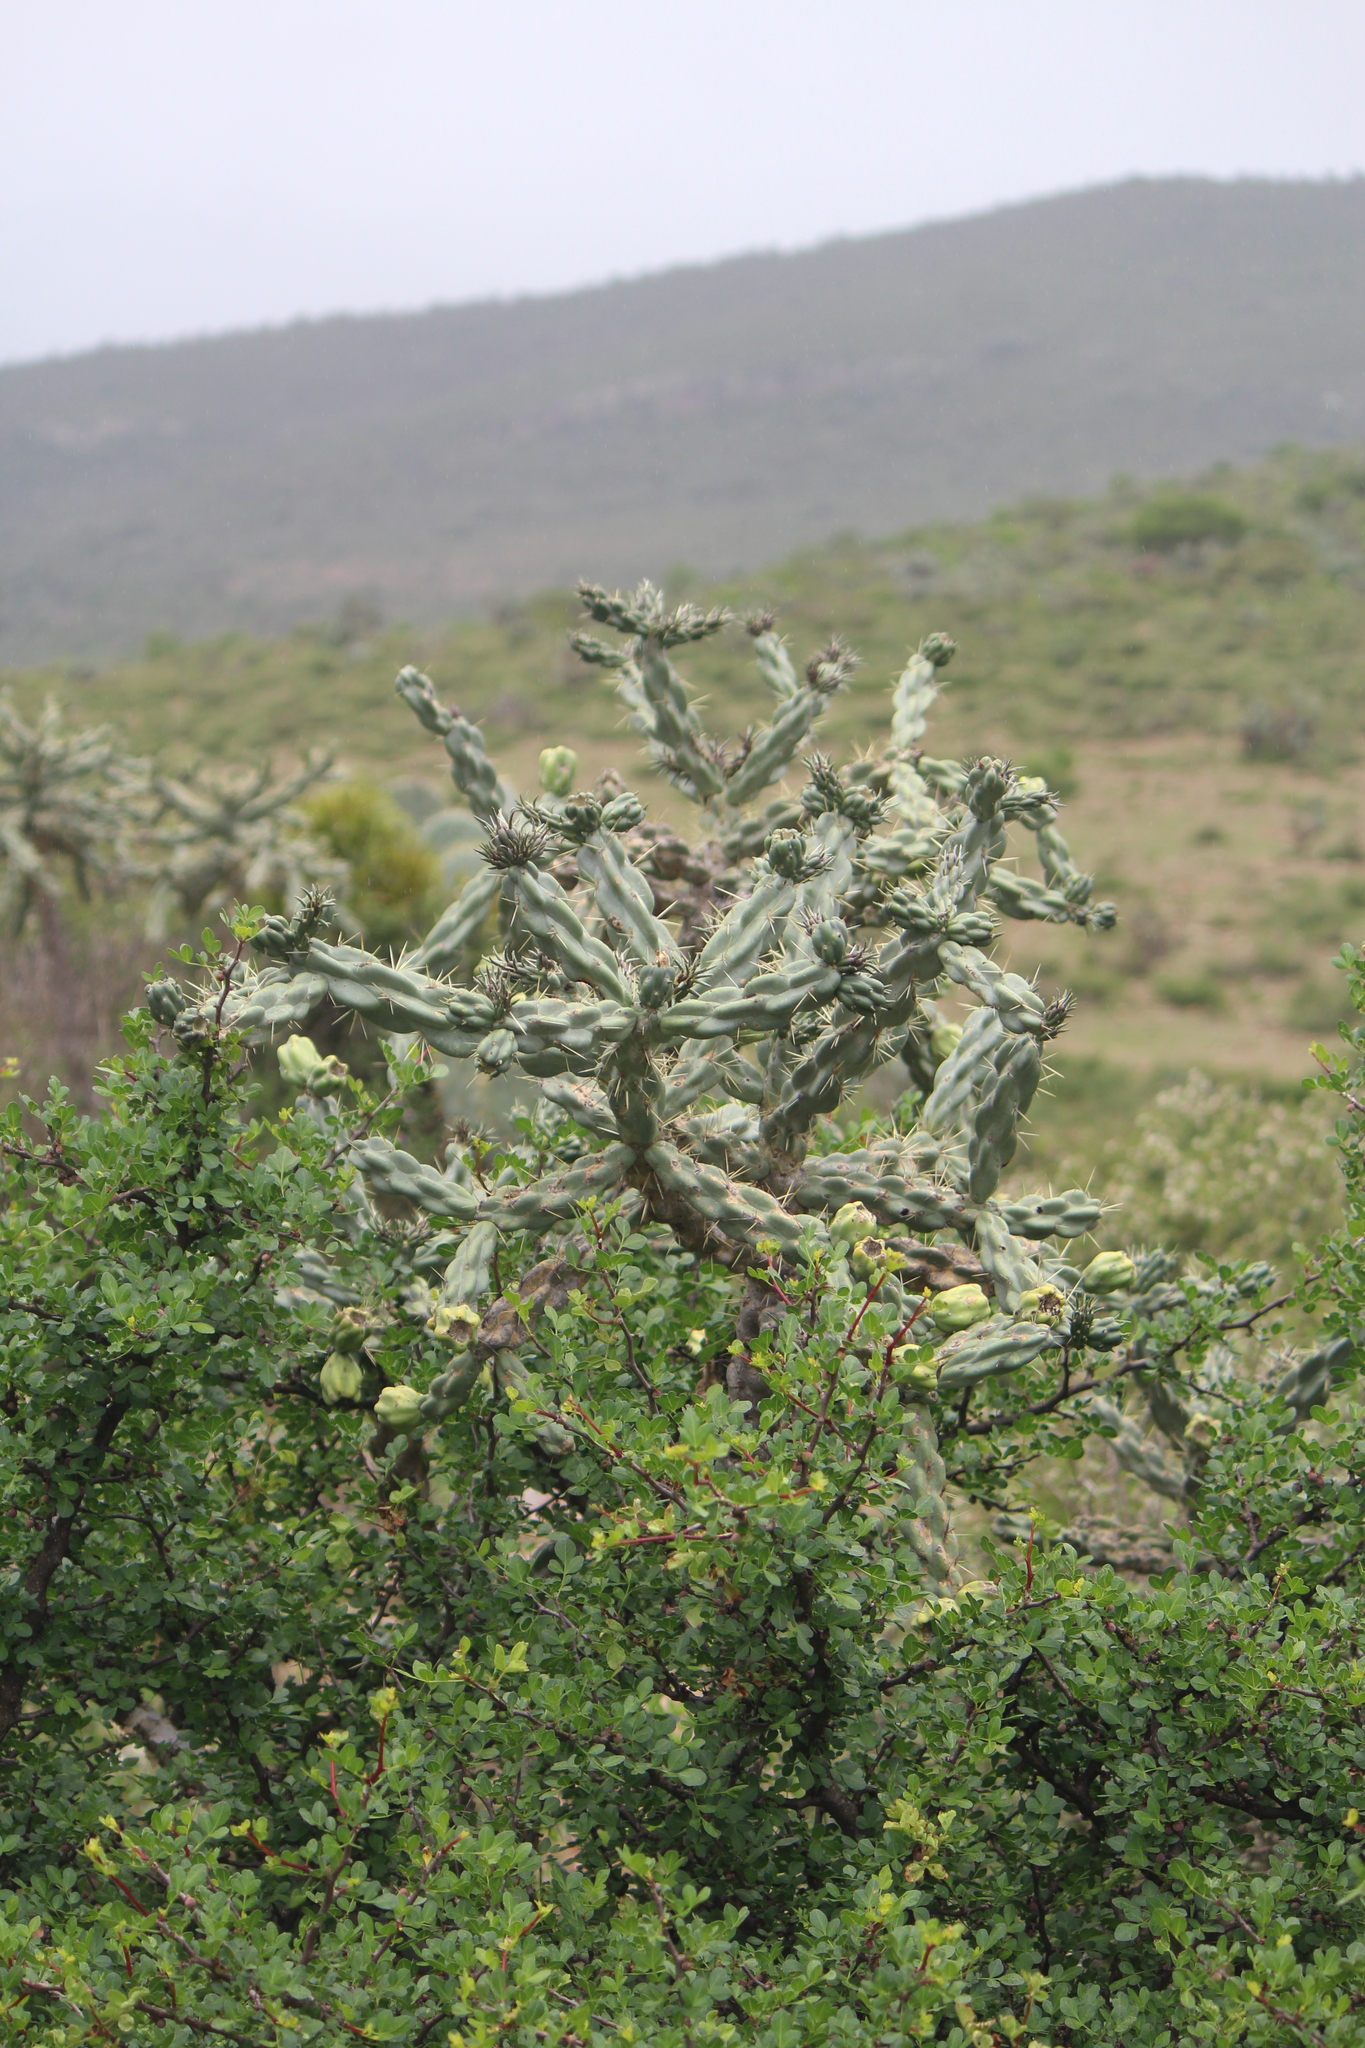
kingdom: Plantae
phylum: Tracheophyta
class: Magnoliopsida
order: Caryophyllales
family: Cactaceae
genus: Cylindropuntia
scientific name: Cylindropuntia imbricata
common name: Candelabrum cactus
